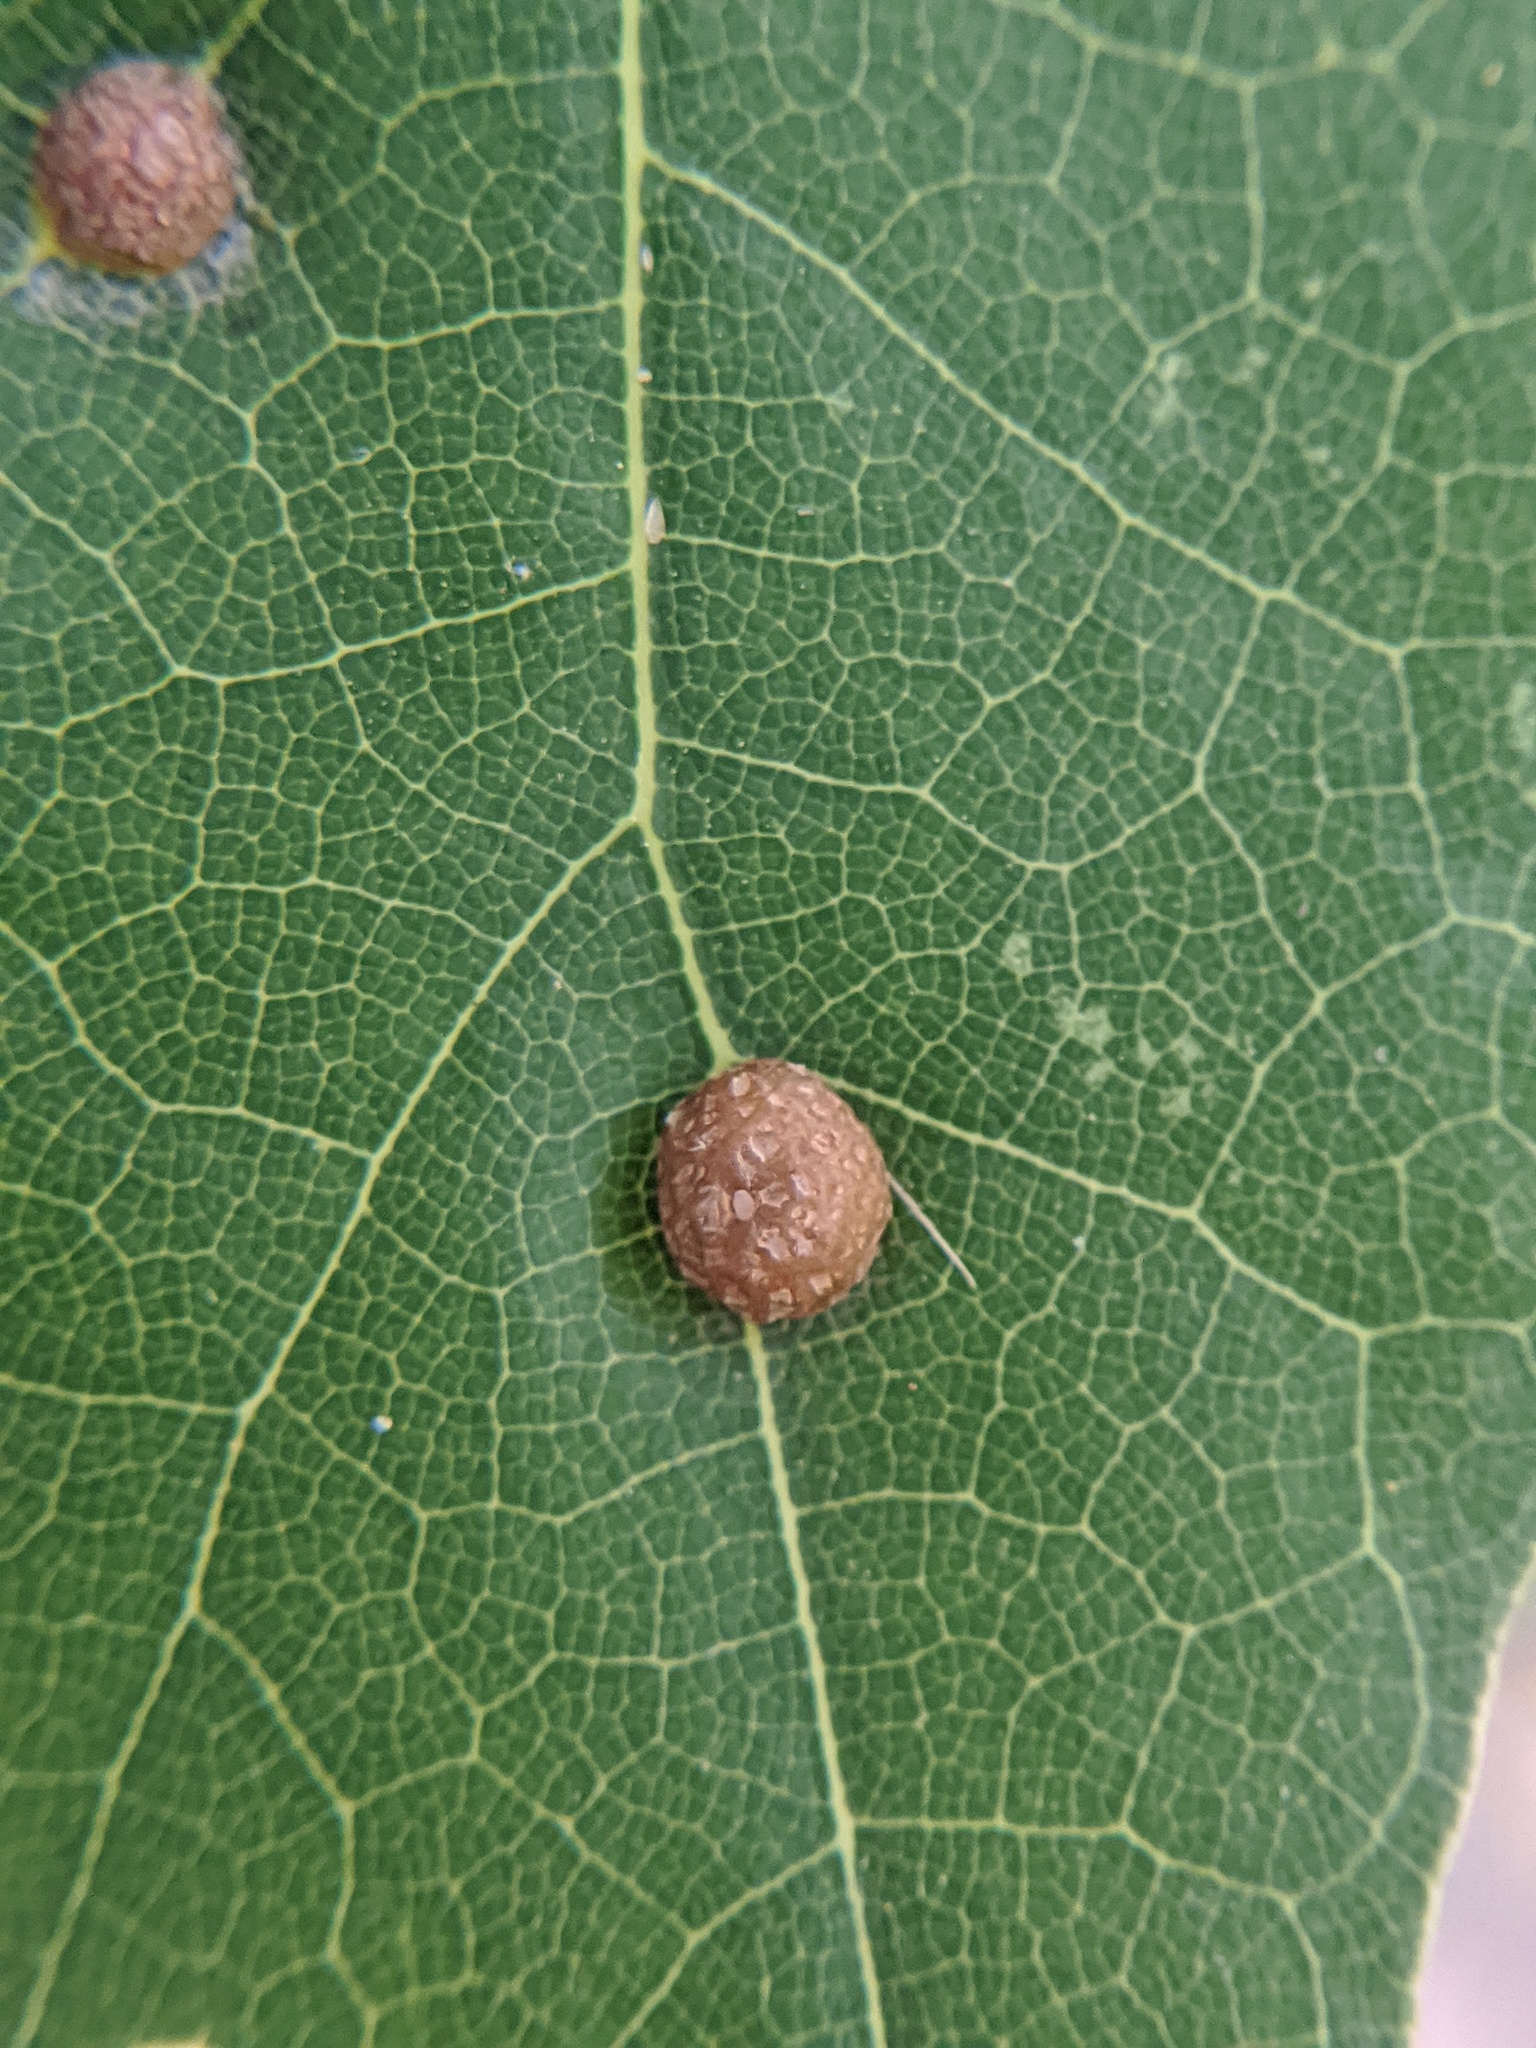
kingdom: Animalia
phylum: Arthropoda
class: Insecta
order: Diptera
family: Cecidomyiidae
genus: Polystepha
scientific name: Polystepha pilulae
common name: Oak leaf gall midge
